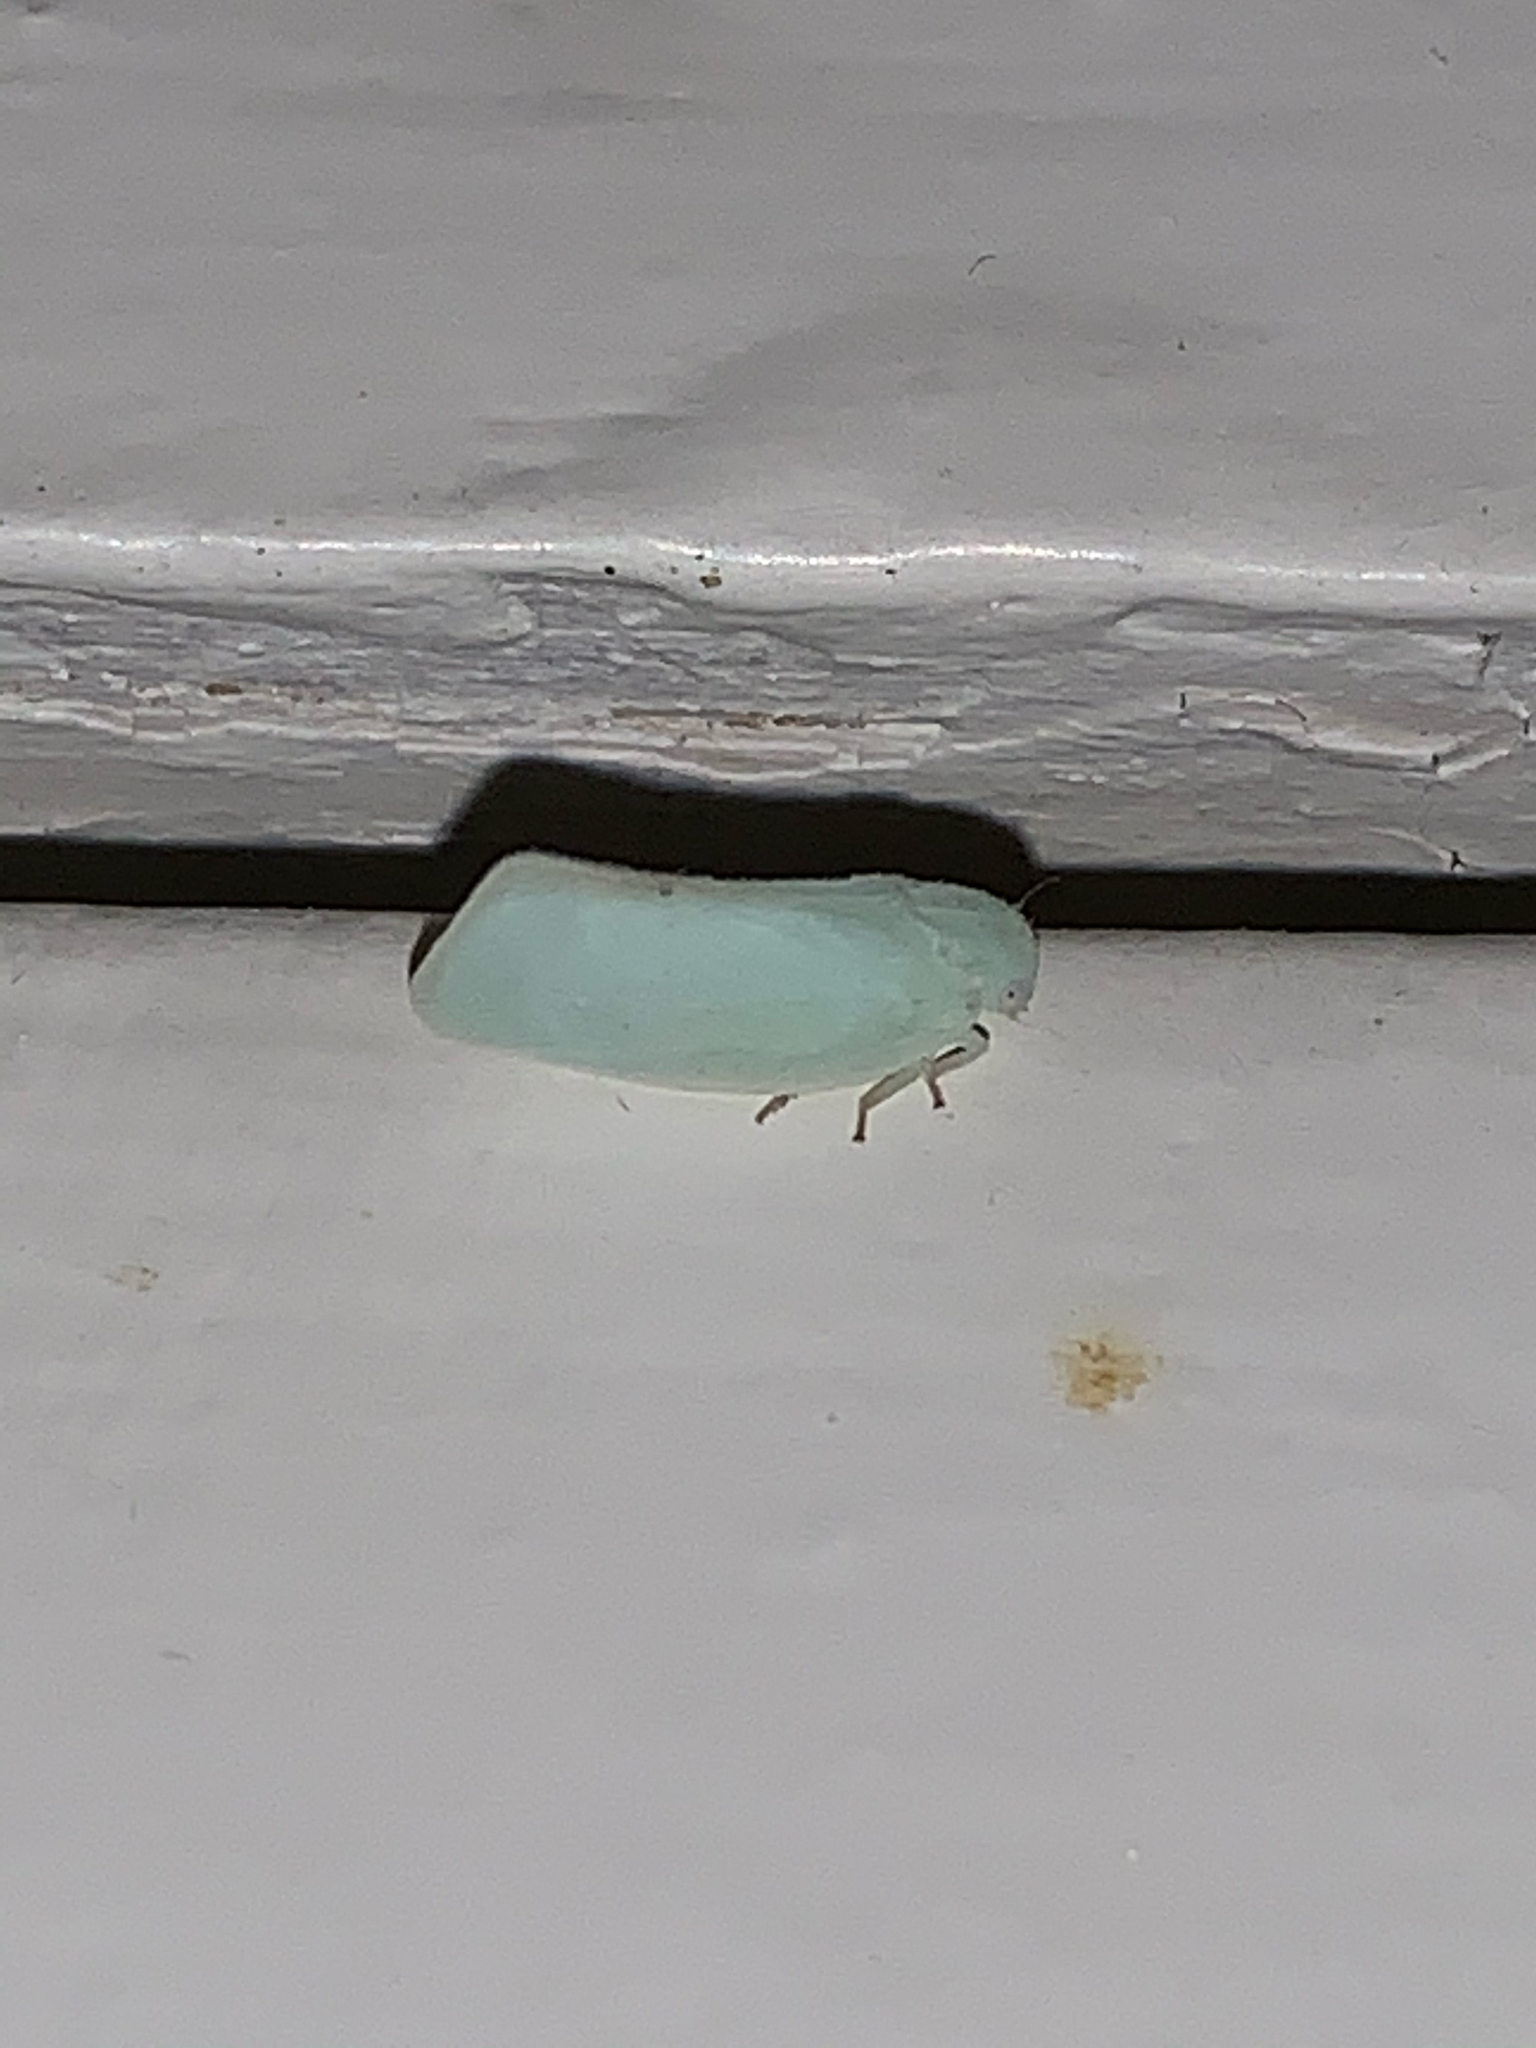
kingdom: Animalia
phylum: Arthropoda
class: Insecta
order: Hemiptera
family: Flatidae
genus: Flatormenis
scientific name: Flatormenis proxima
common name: Northern flatid planthopper
